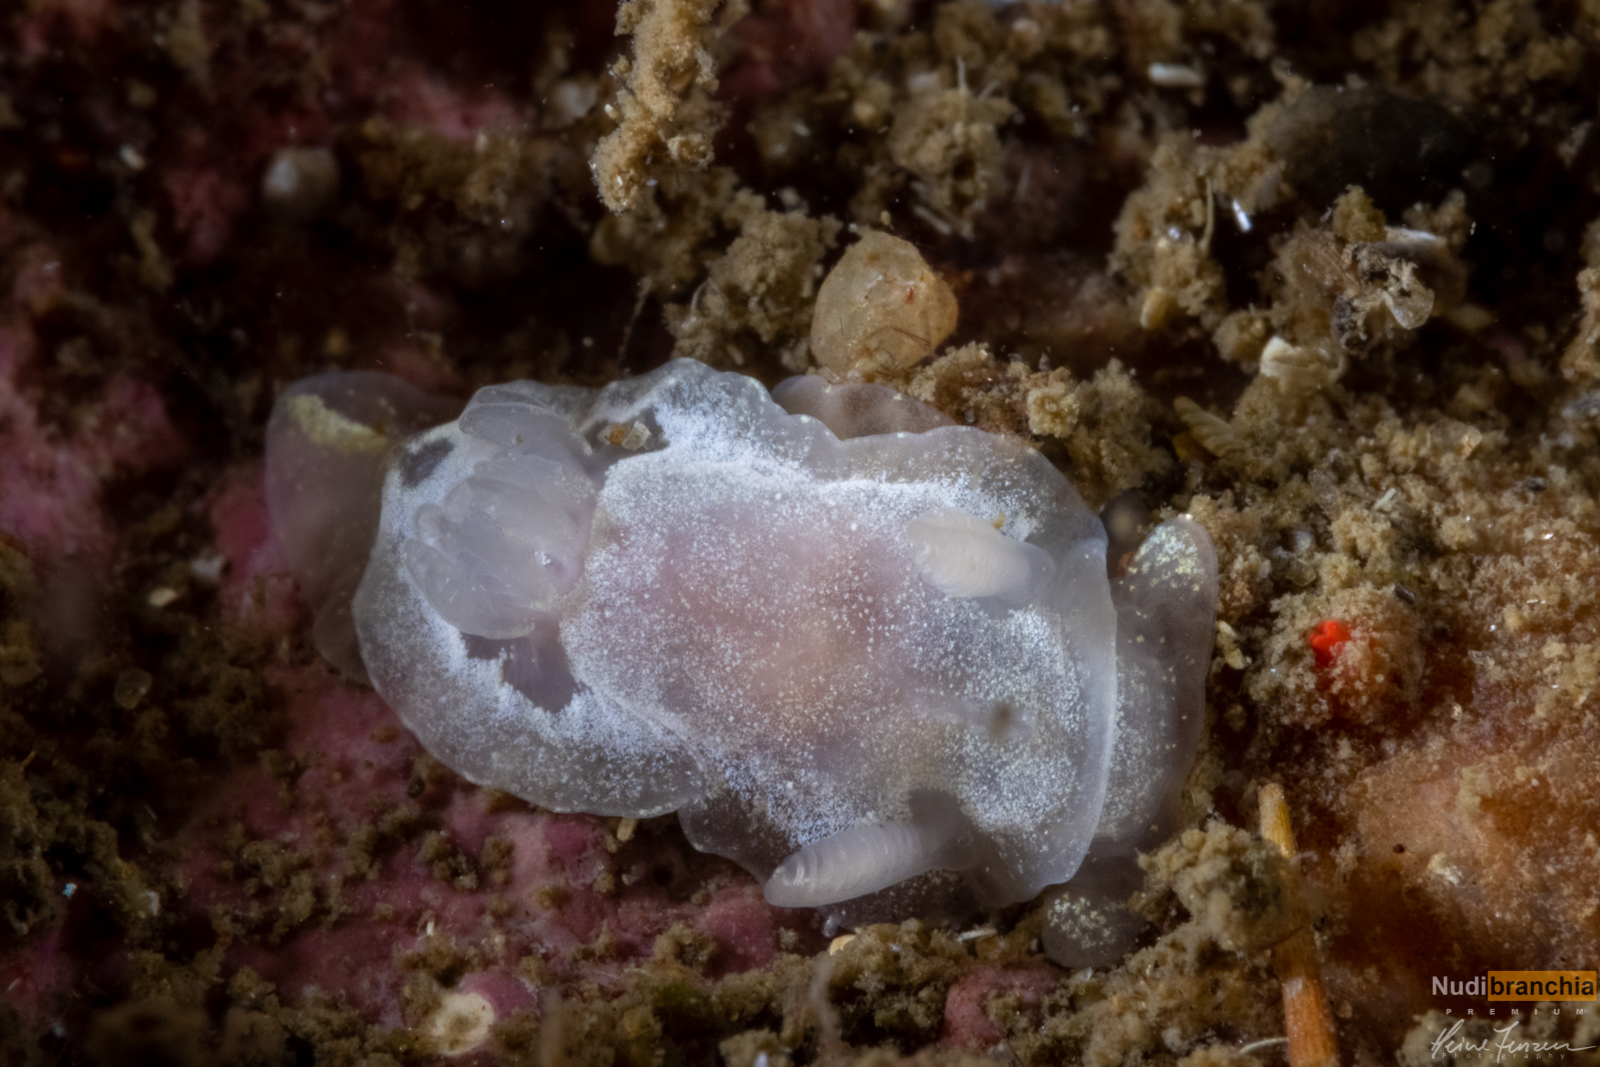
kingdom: Animalia
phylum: Mollusca
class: Gastropoda
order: Nudibranchia
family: Goniodorididae
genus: Okenia
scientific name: Okenia
